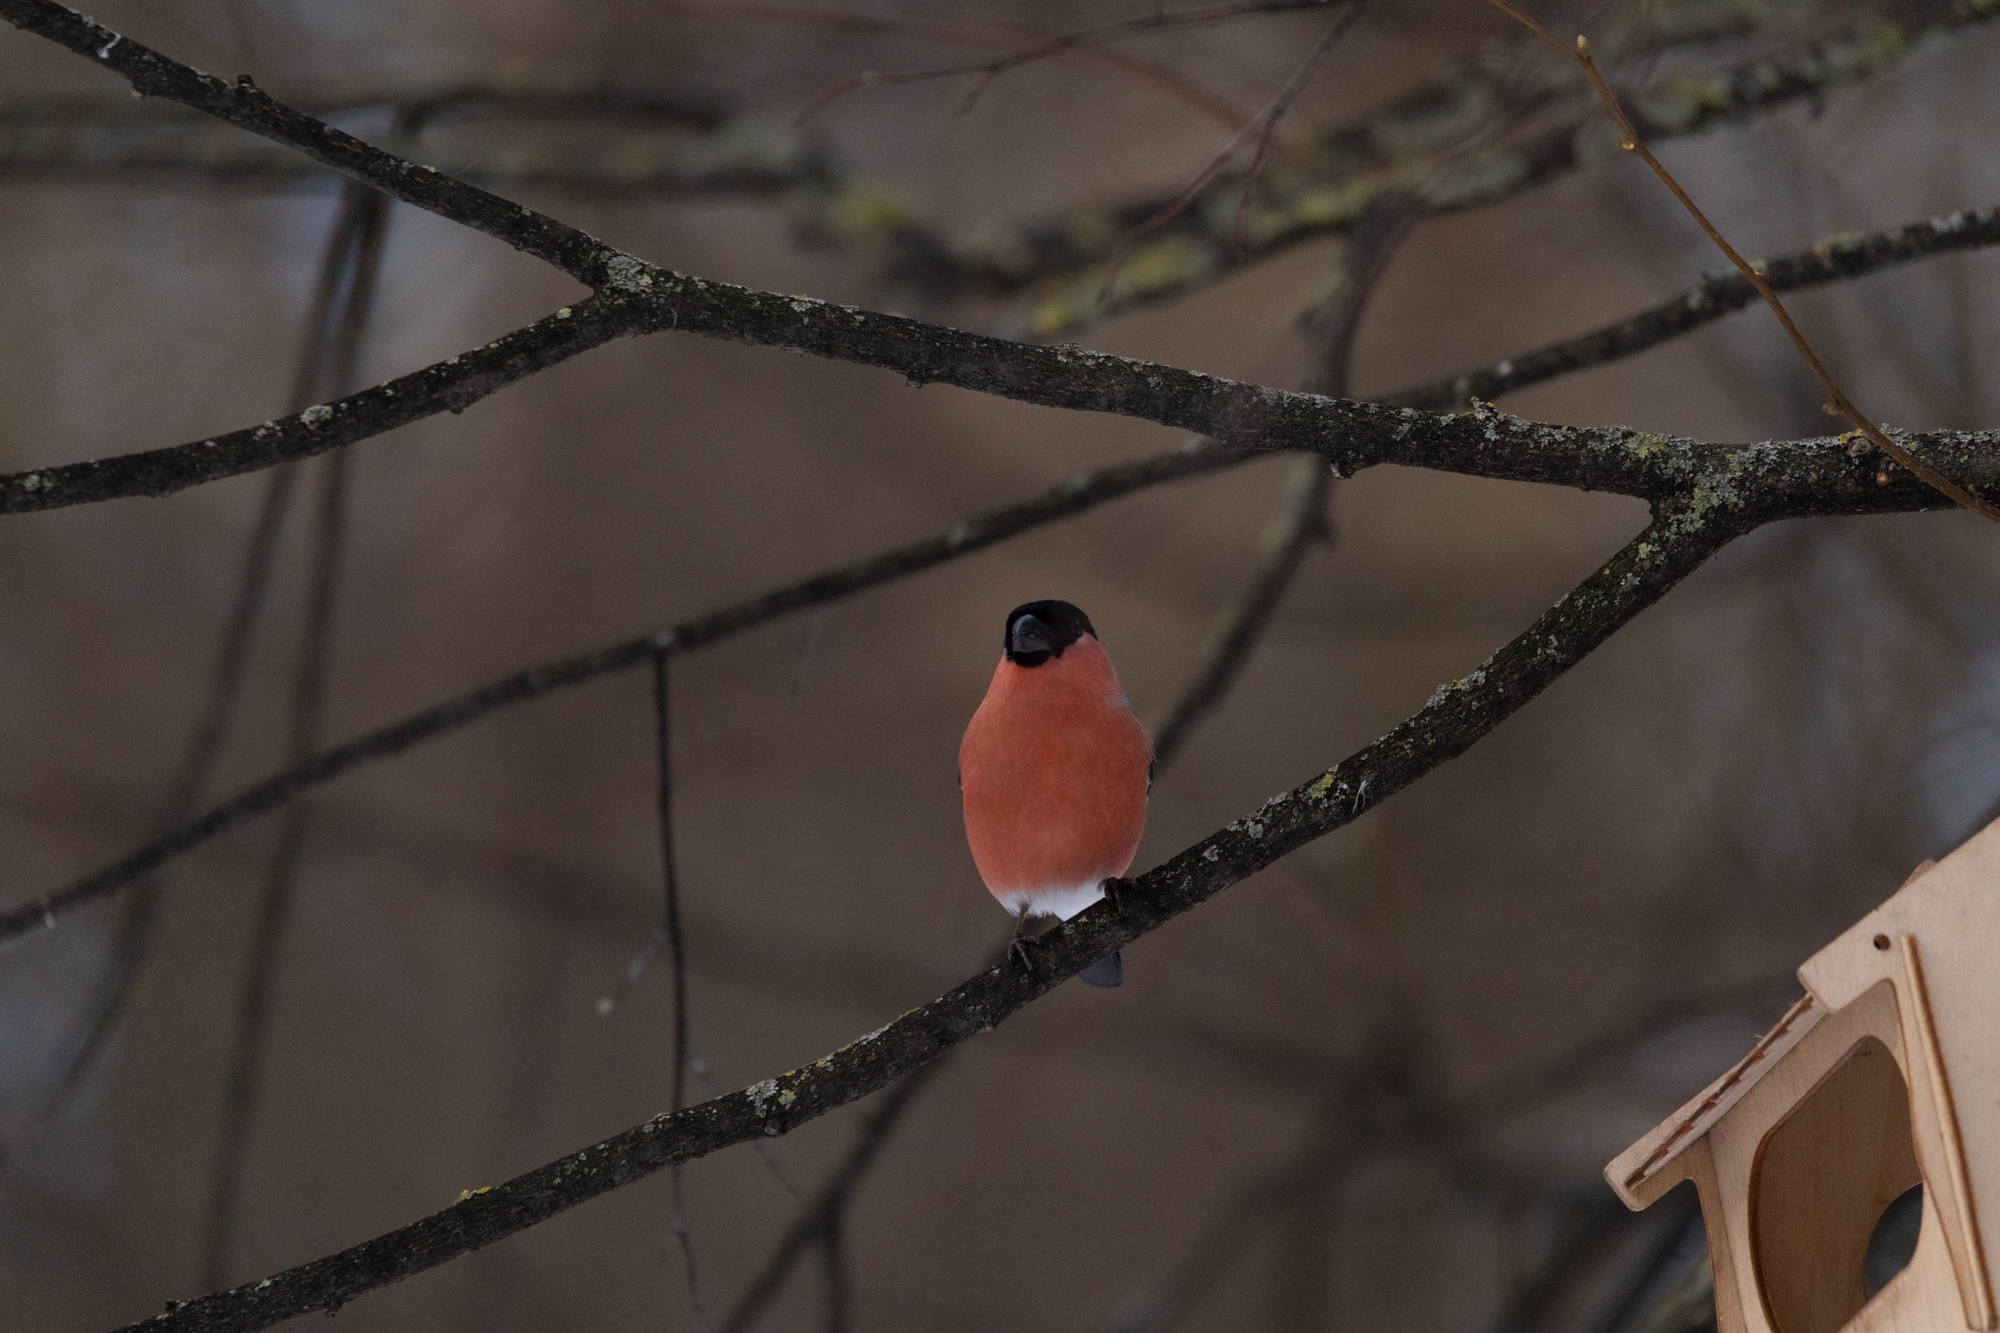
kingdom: Animalia
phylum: Chordata
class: Aves
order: Passeriformes
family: Fringillidae
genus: Pyrrhula
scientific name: Pyrrhula pyrrhula
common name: Eurasian bullfinch
